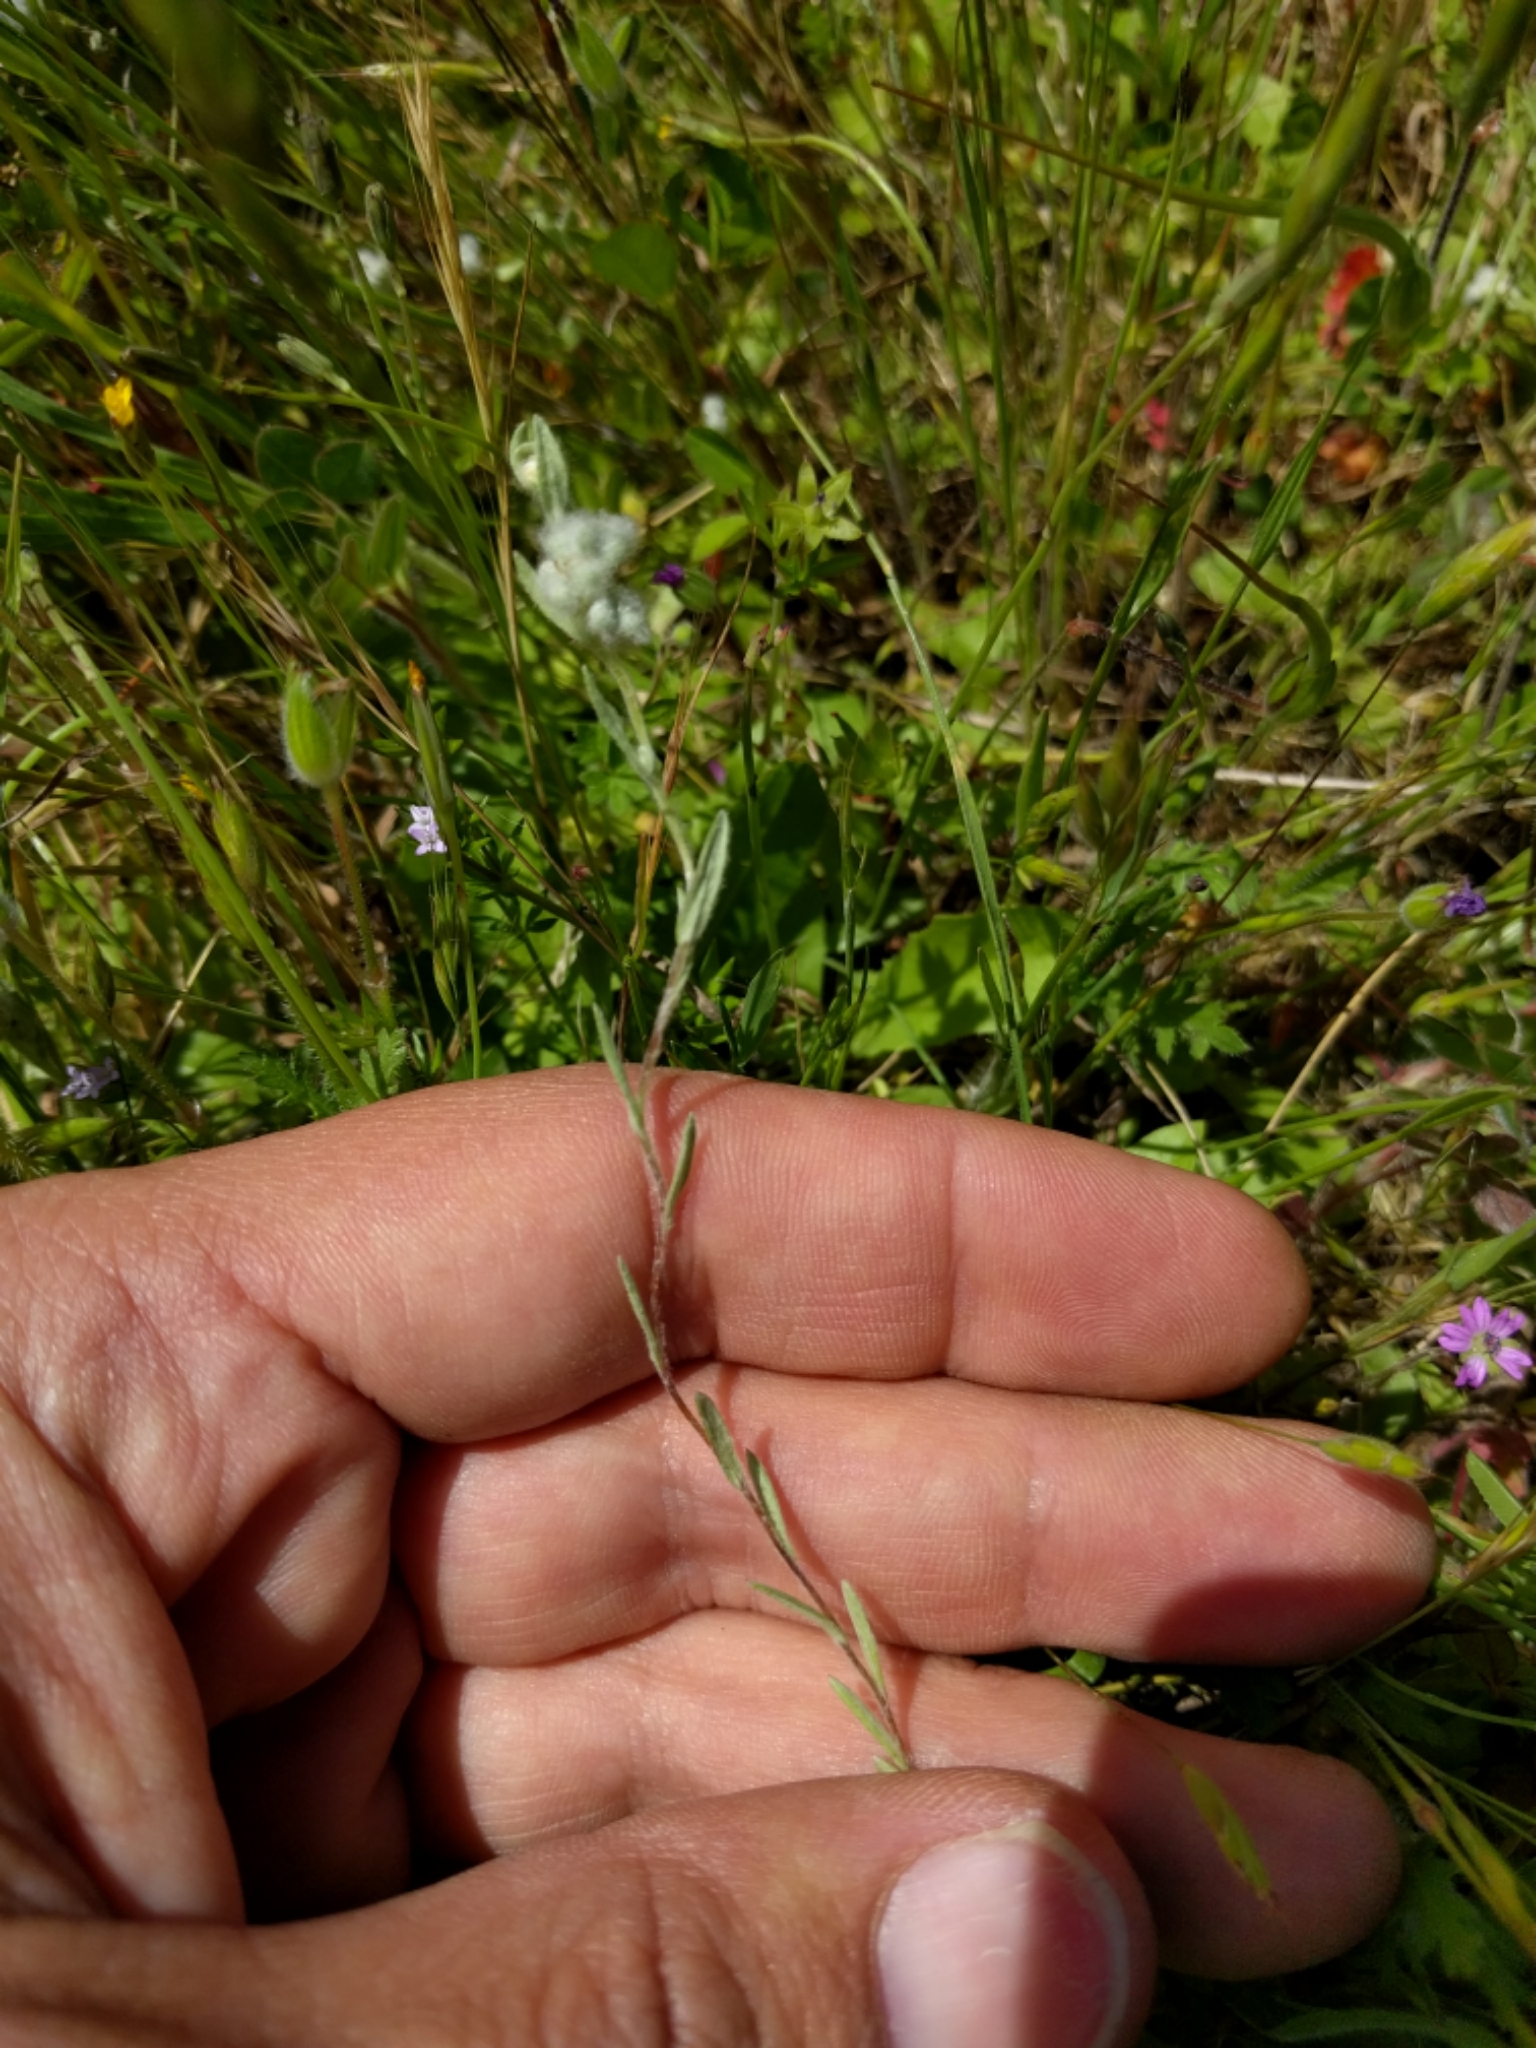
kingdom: Plantae
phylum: Tracheophyta
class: Magnoliopsida
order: Asterales
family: Asteraceae
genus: Bombycilaena
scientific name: Bombycilaena californica
